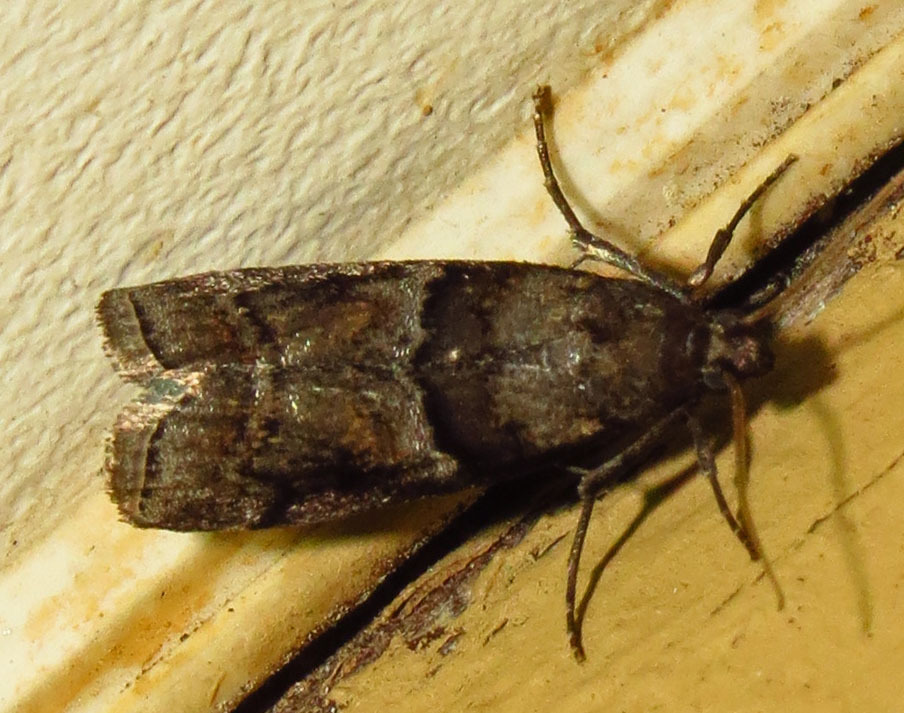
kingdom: Animalia
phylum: Arthropoda
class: Insecta
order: Lepidoptera
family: Pyralidae
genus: Dioryctria
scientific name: Dioryctria clarioralis
